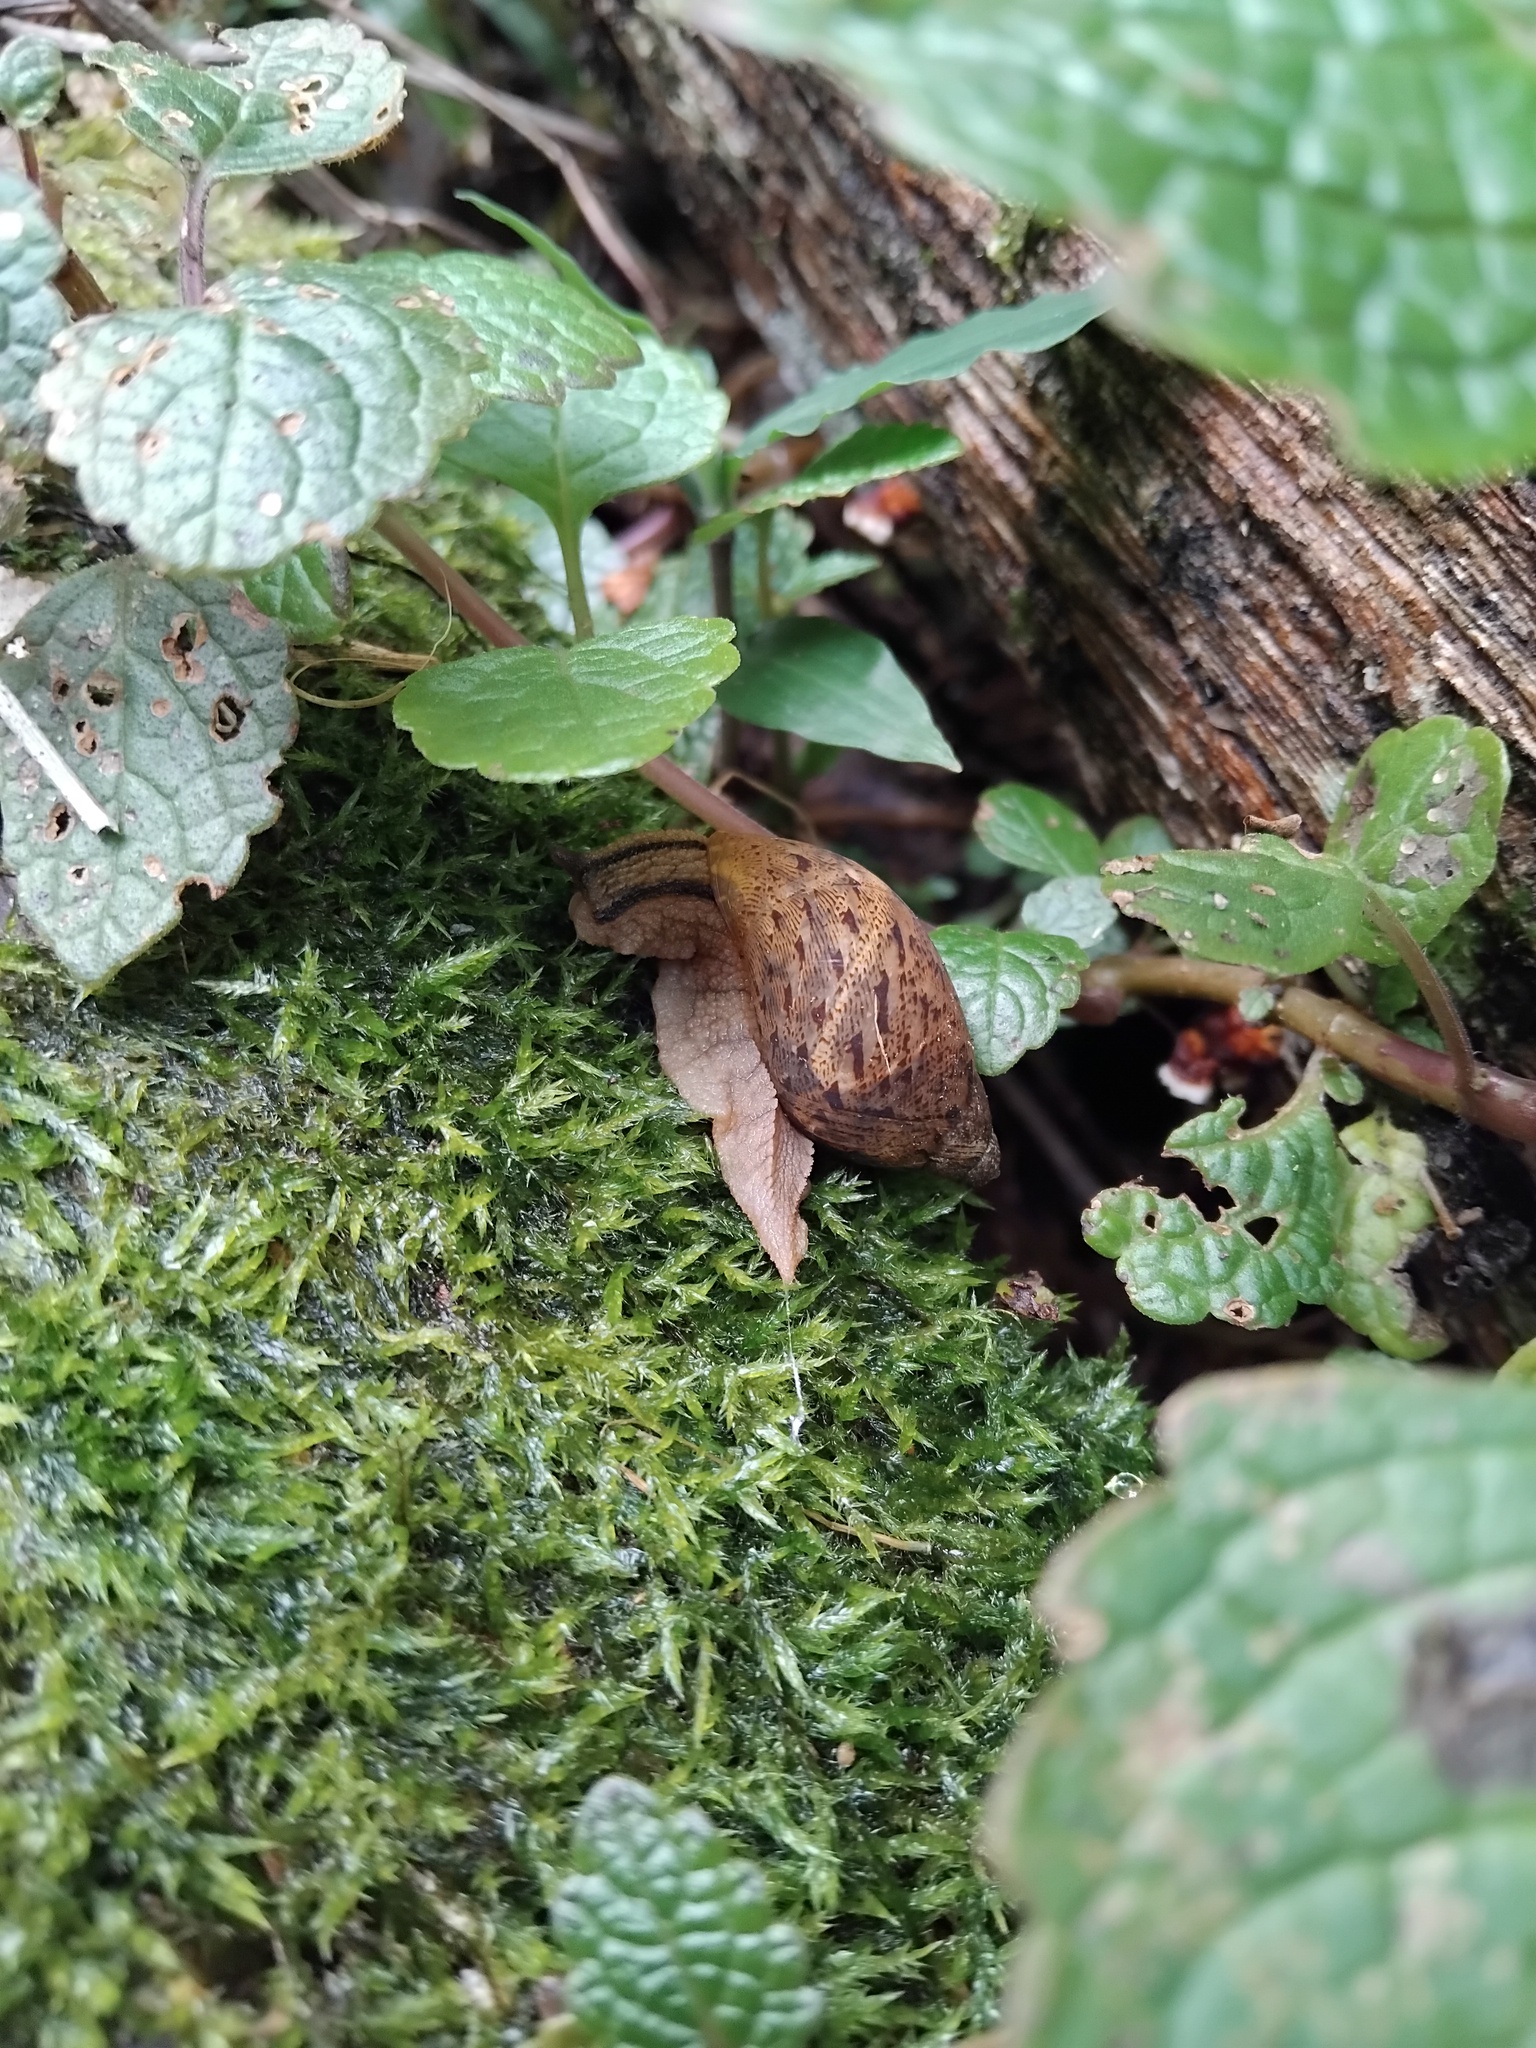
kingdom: Animalia
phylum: Mollusca
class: Gastropoda
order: Stylommatophora
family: Caryodidae
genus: Brazieresta
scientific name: Brazieresta larreyi
